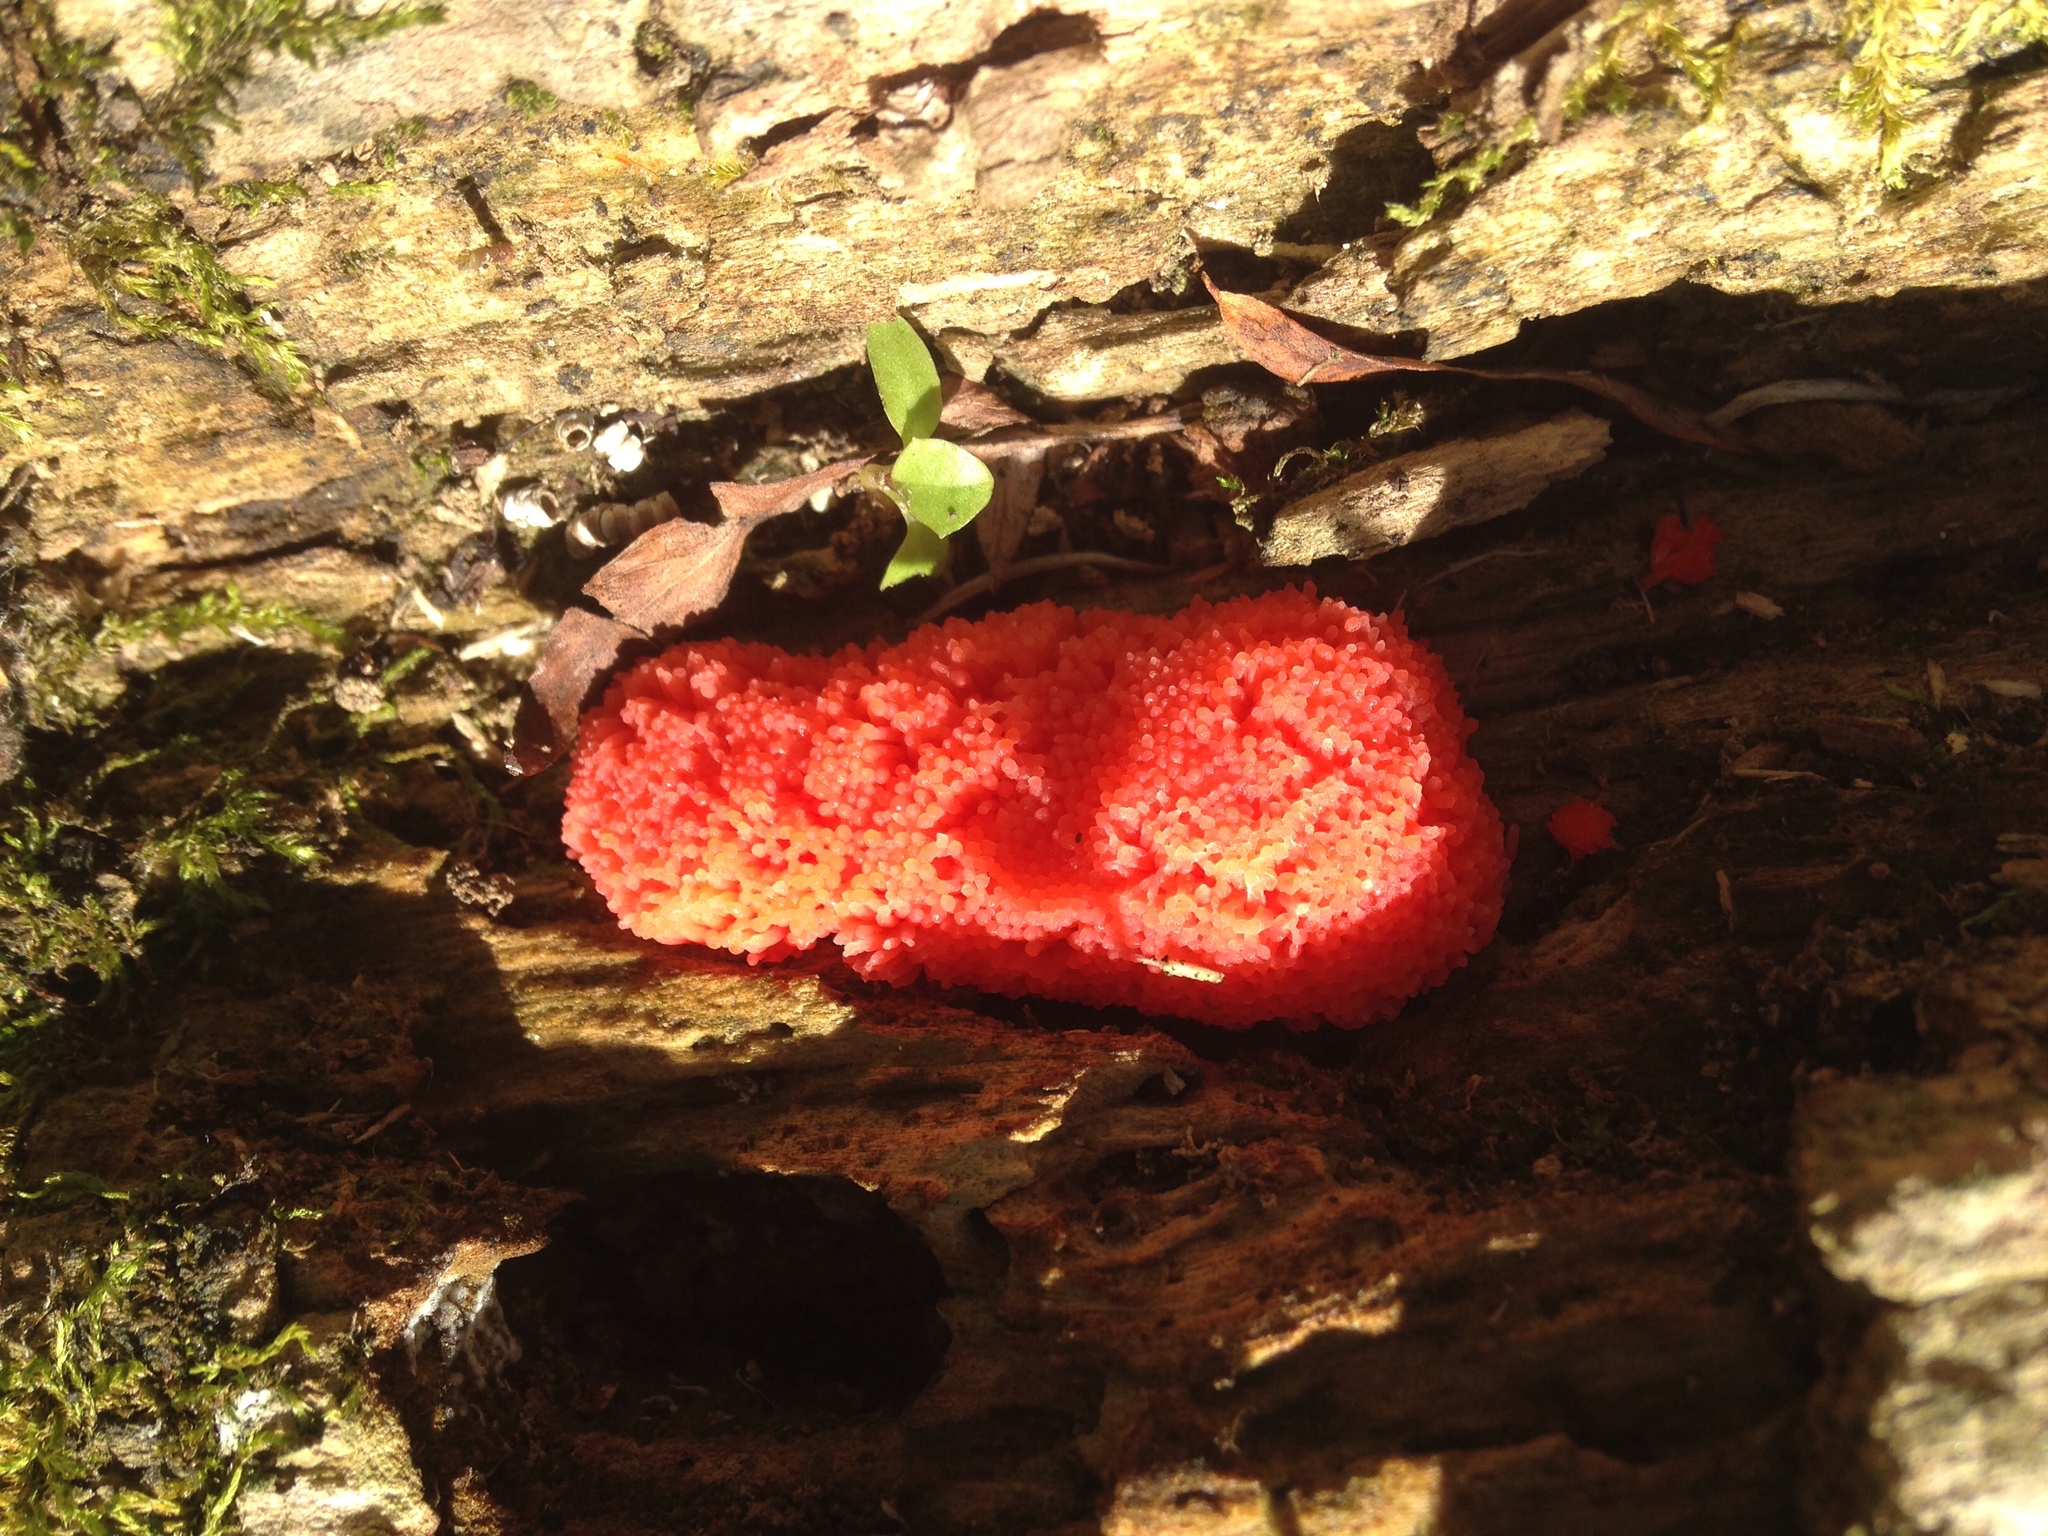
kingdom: Protozoa
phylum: Mycetozoa
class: Myxomycetes
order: Cribrariales
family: Tubiferaceae
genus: Tubifera
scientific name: Tubifera ferruginosa
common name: Red raspberry slime mold
